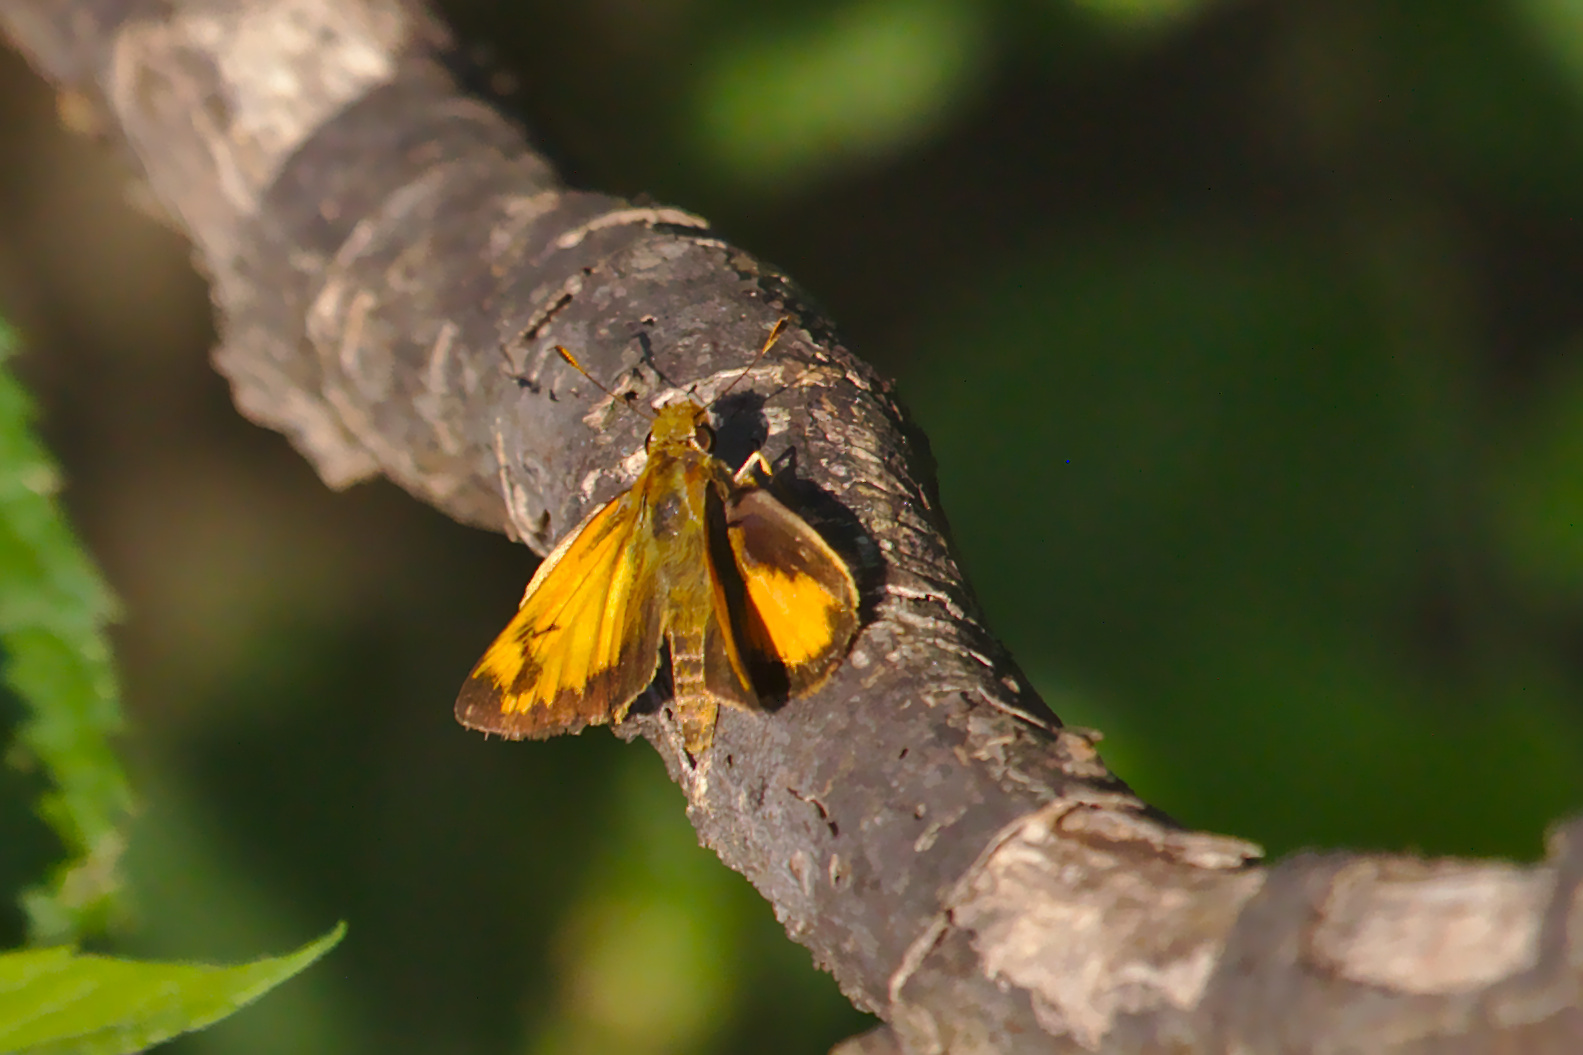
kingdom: Animalia
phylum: Arthropoda
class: Insecta
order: Lepidoptera
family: Hesperiidae
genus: Lon
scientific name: Lon zabulon
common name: Zabulon skipper
